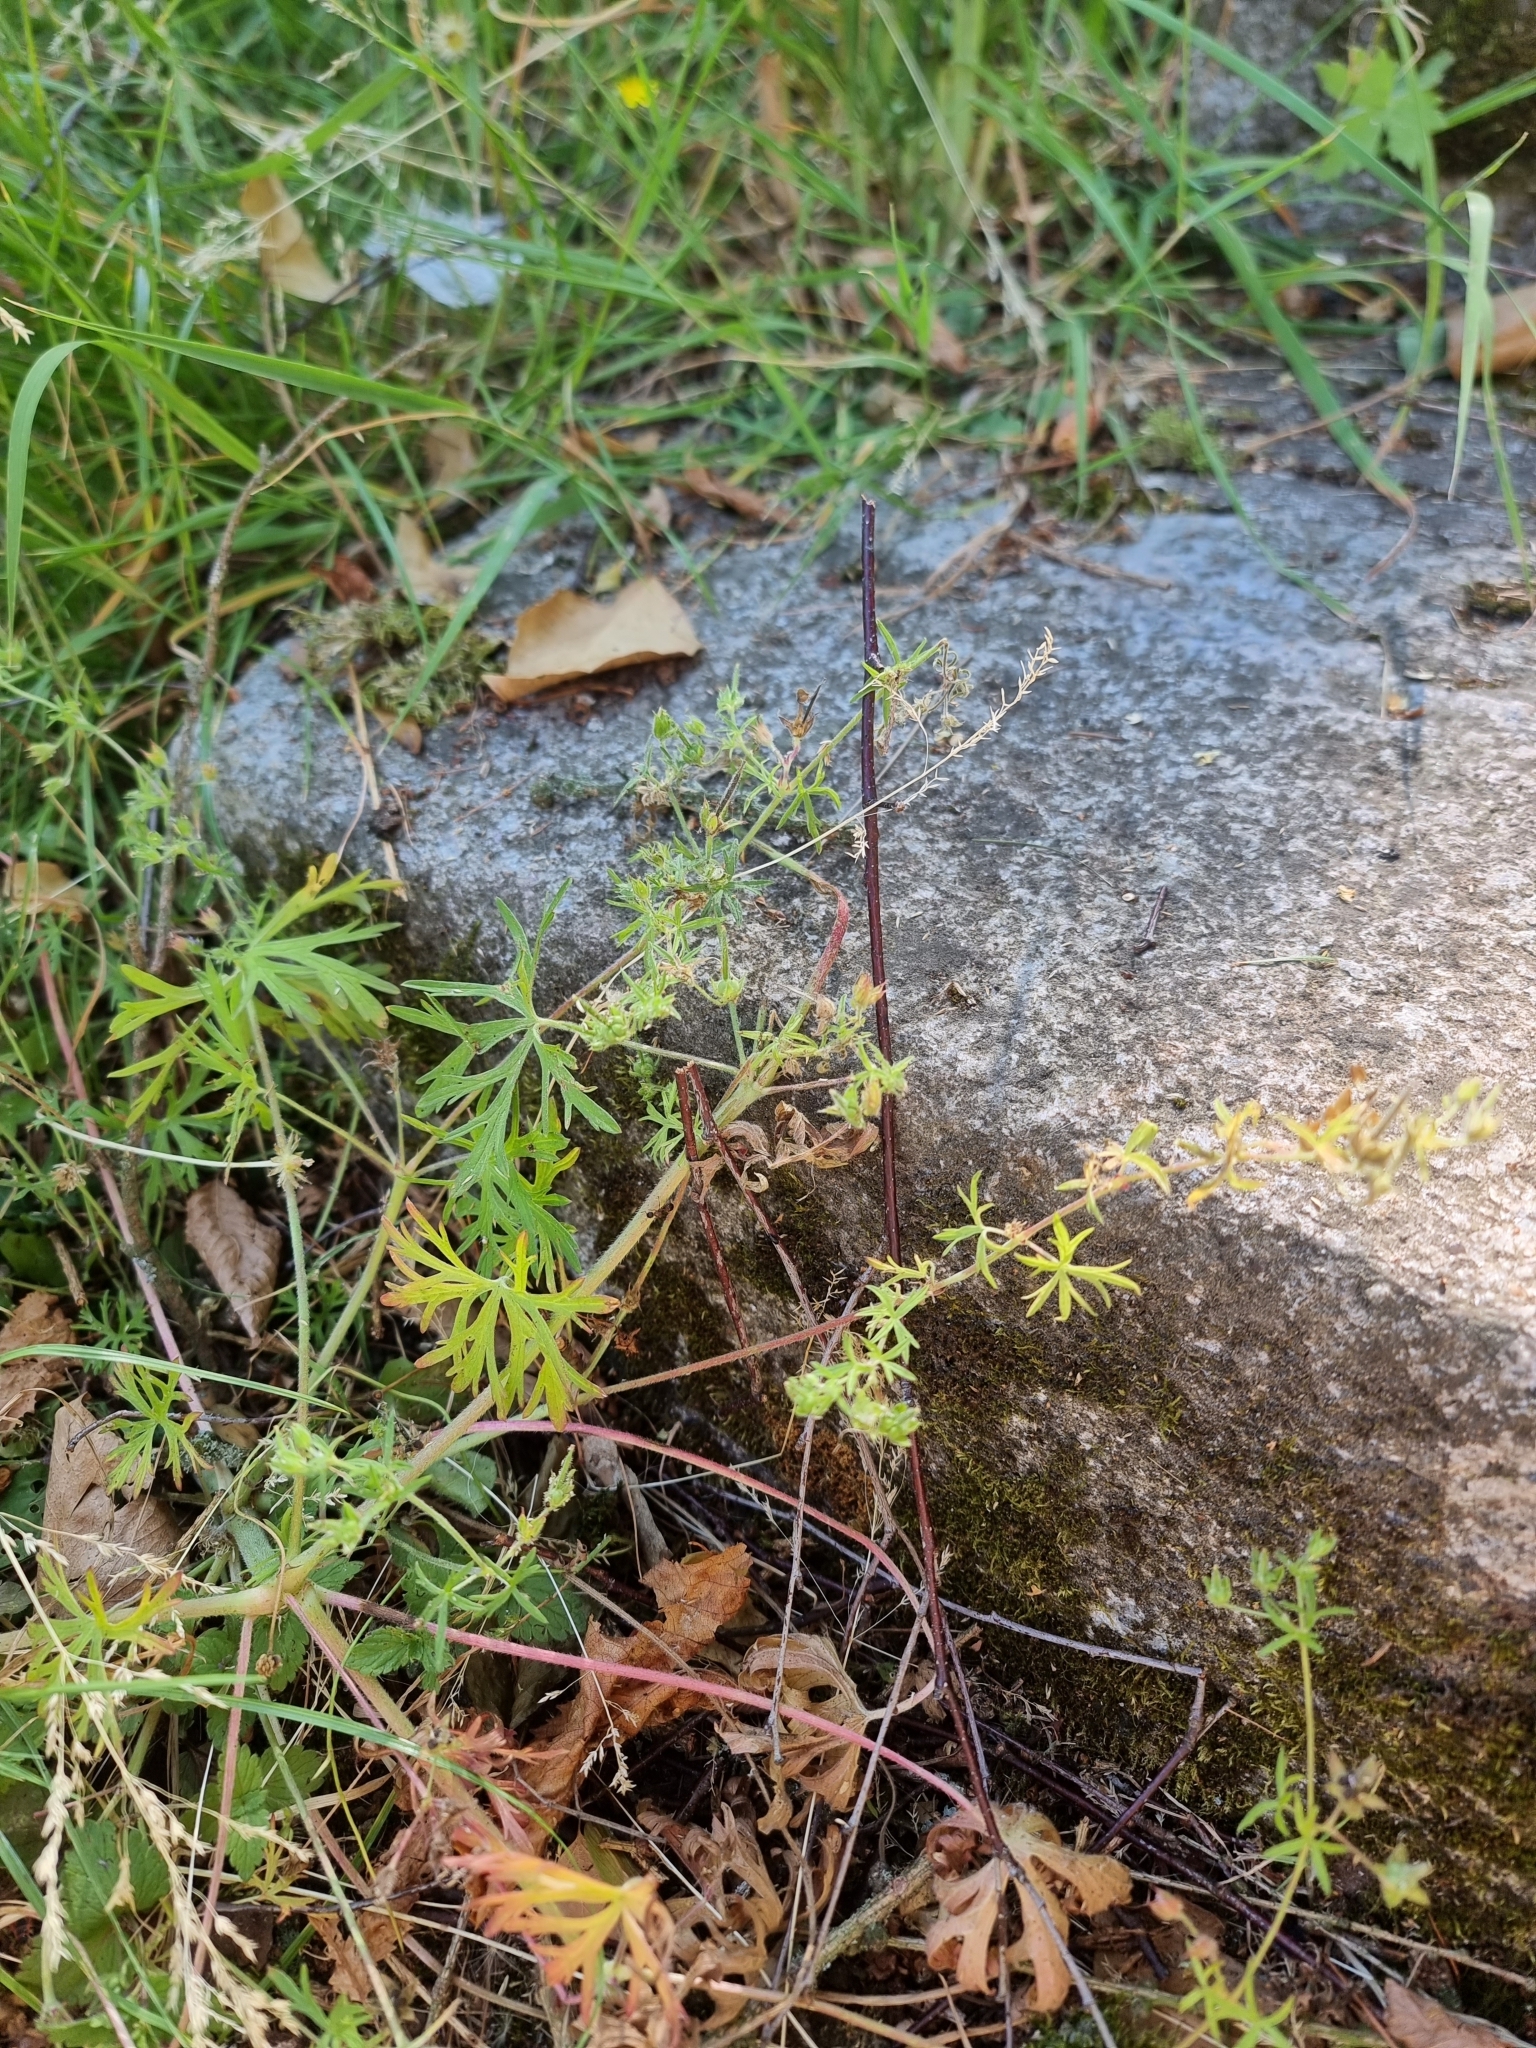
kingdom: Plantae
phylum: Tracheophyta
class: Magnoliopsida
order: Geraniales
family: Geraniaceae
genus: Geranium
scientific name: Geranium dissectum
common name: Cut-leaved crane's-bill
